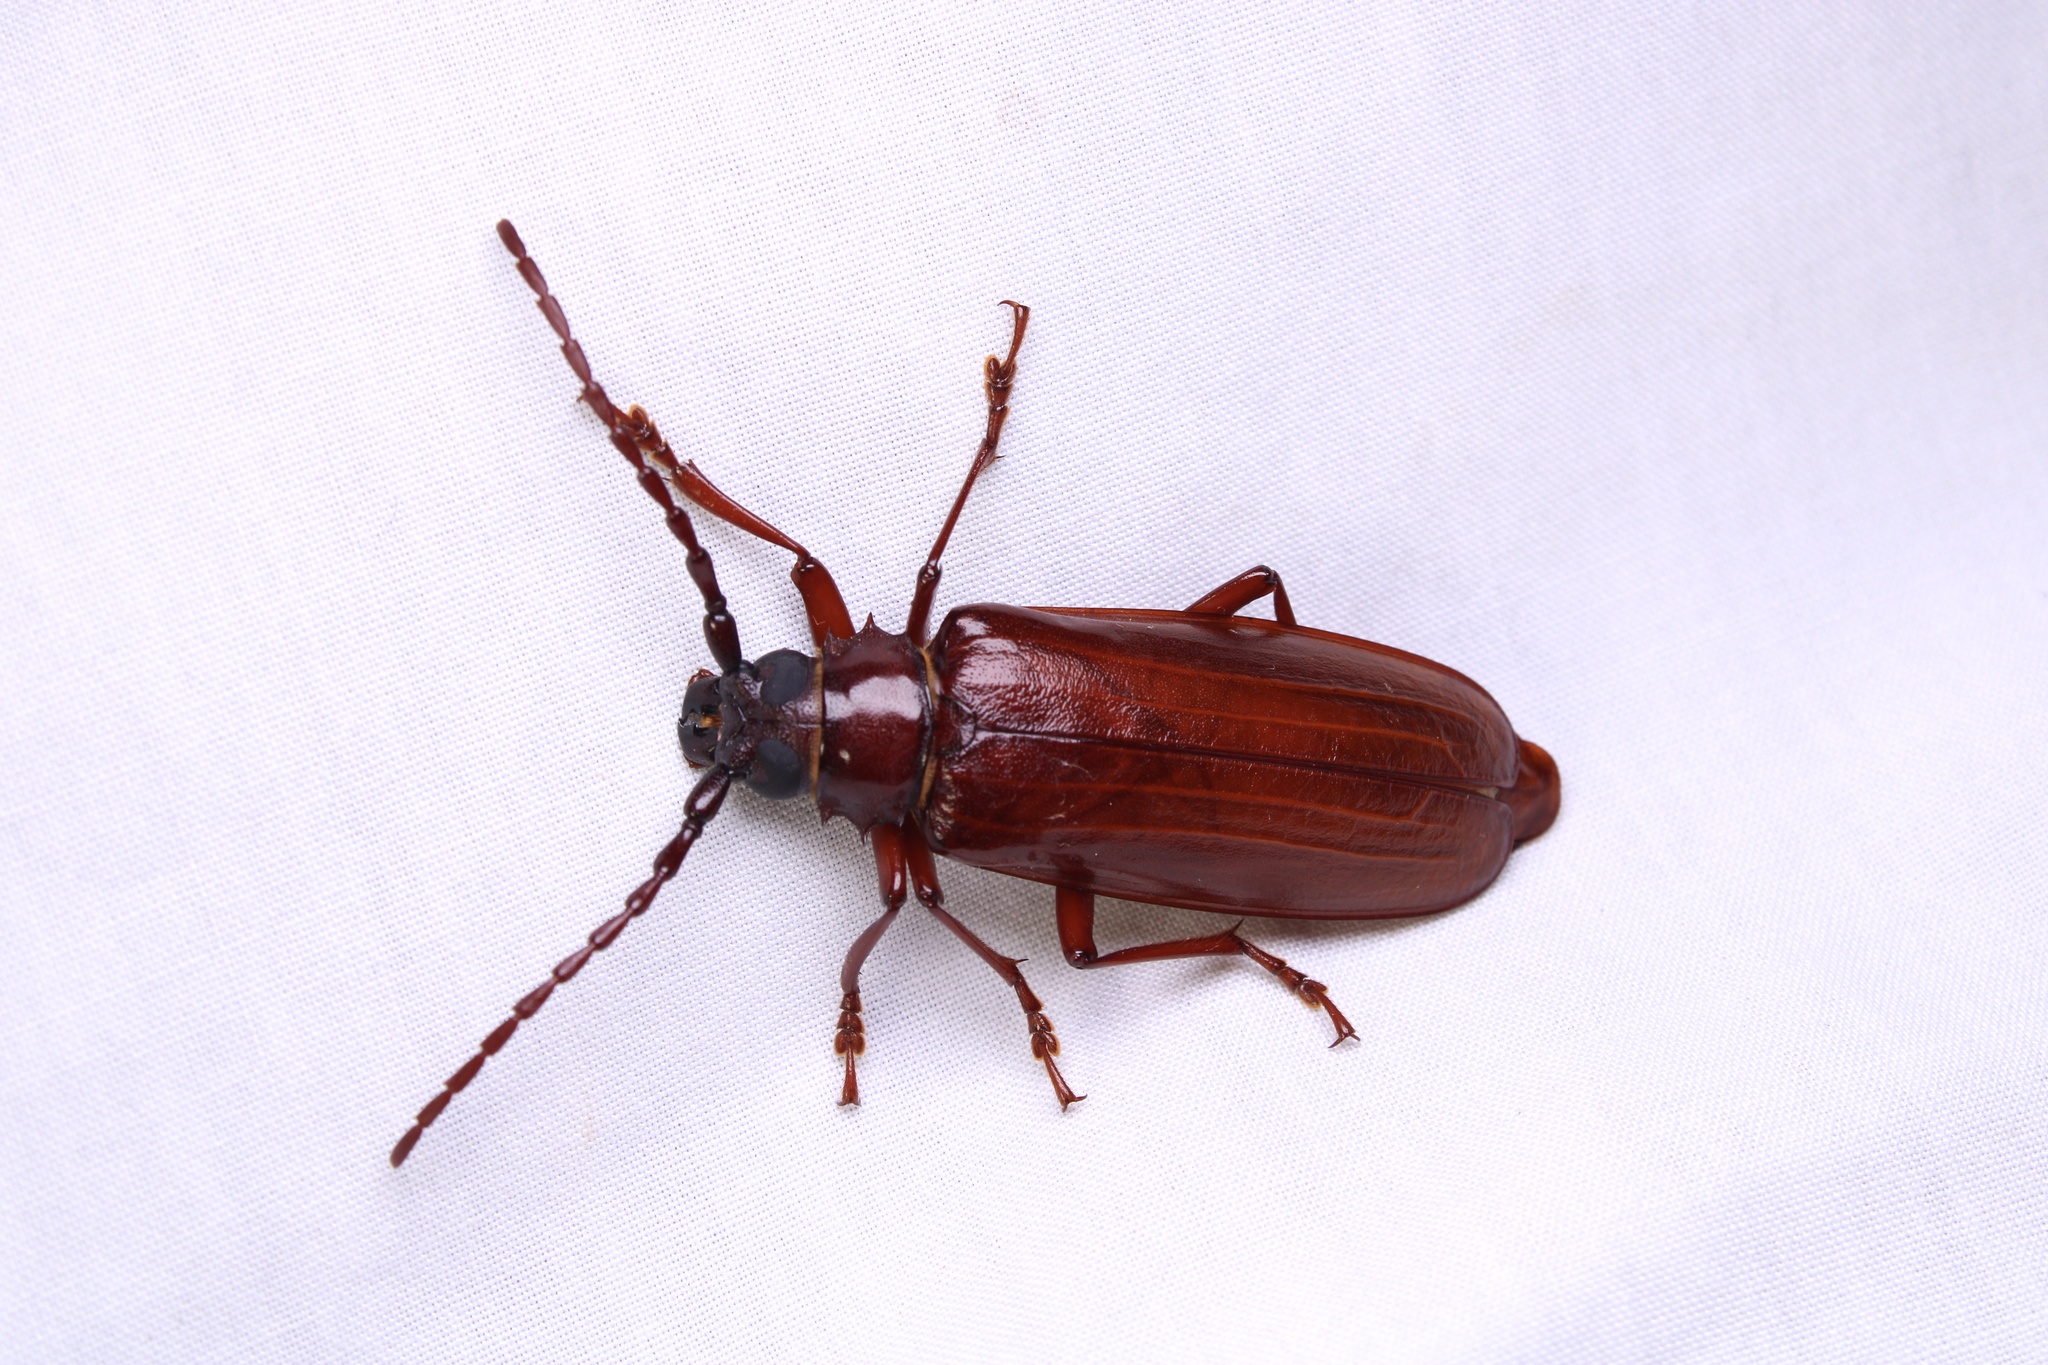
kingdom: Animalia
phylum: Arthropoda
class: Insecta
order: Coleoptera
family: Cerambycidae
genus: Orthosoma
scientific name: Orthosoma brunneum
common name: Brown prionid beetle
